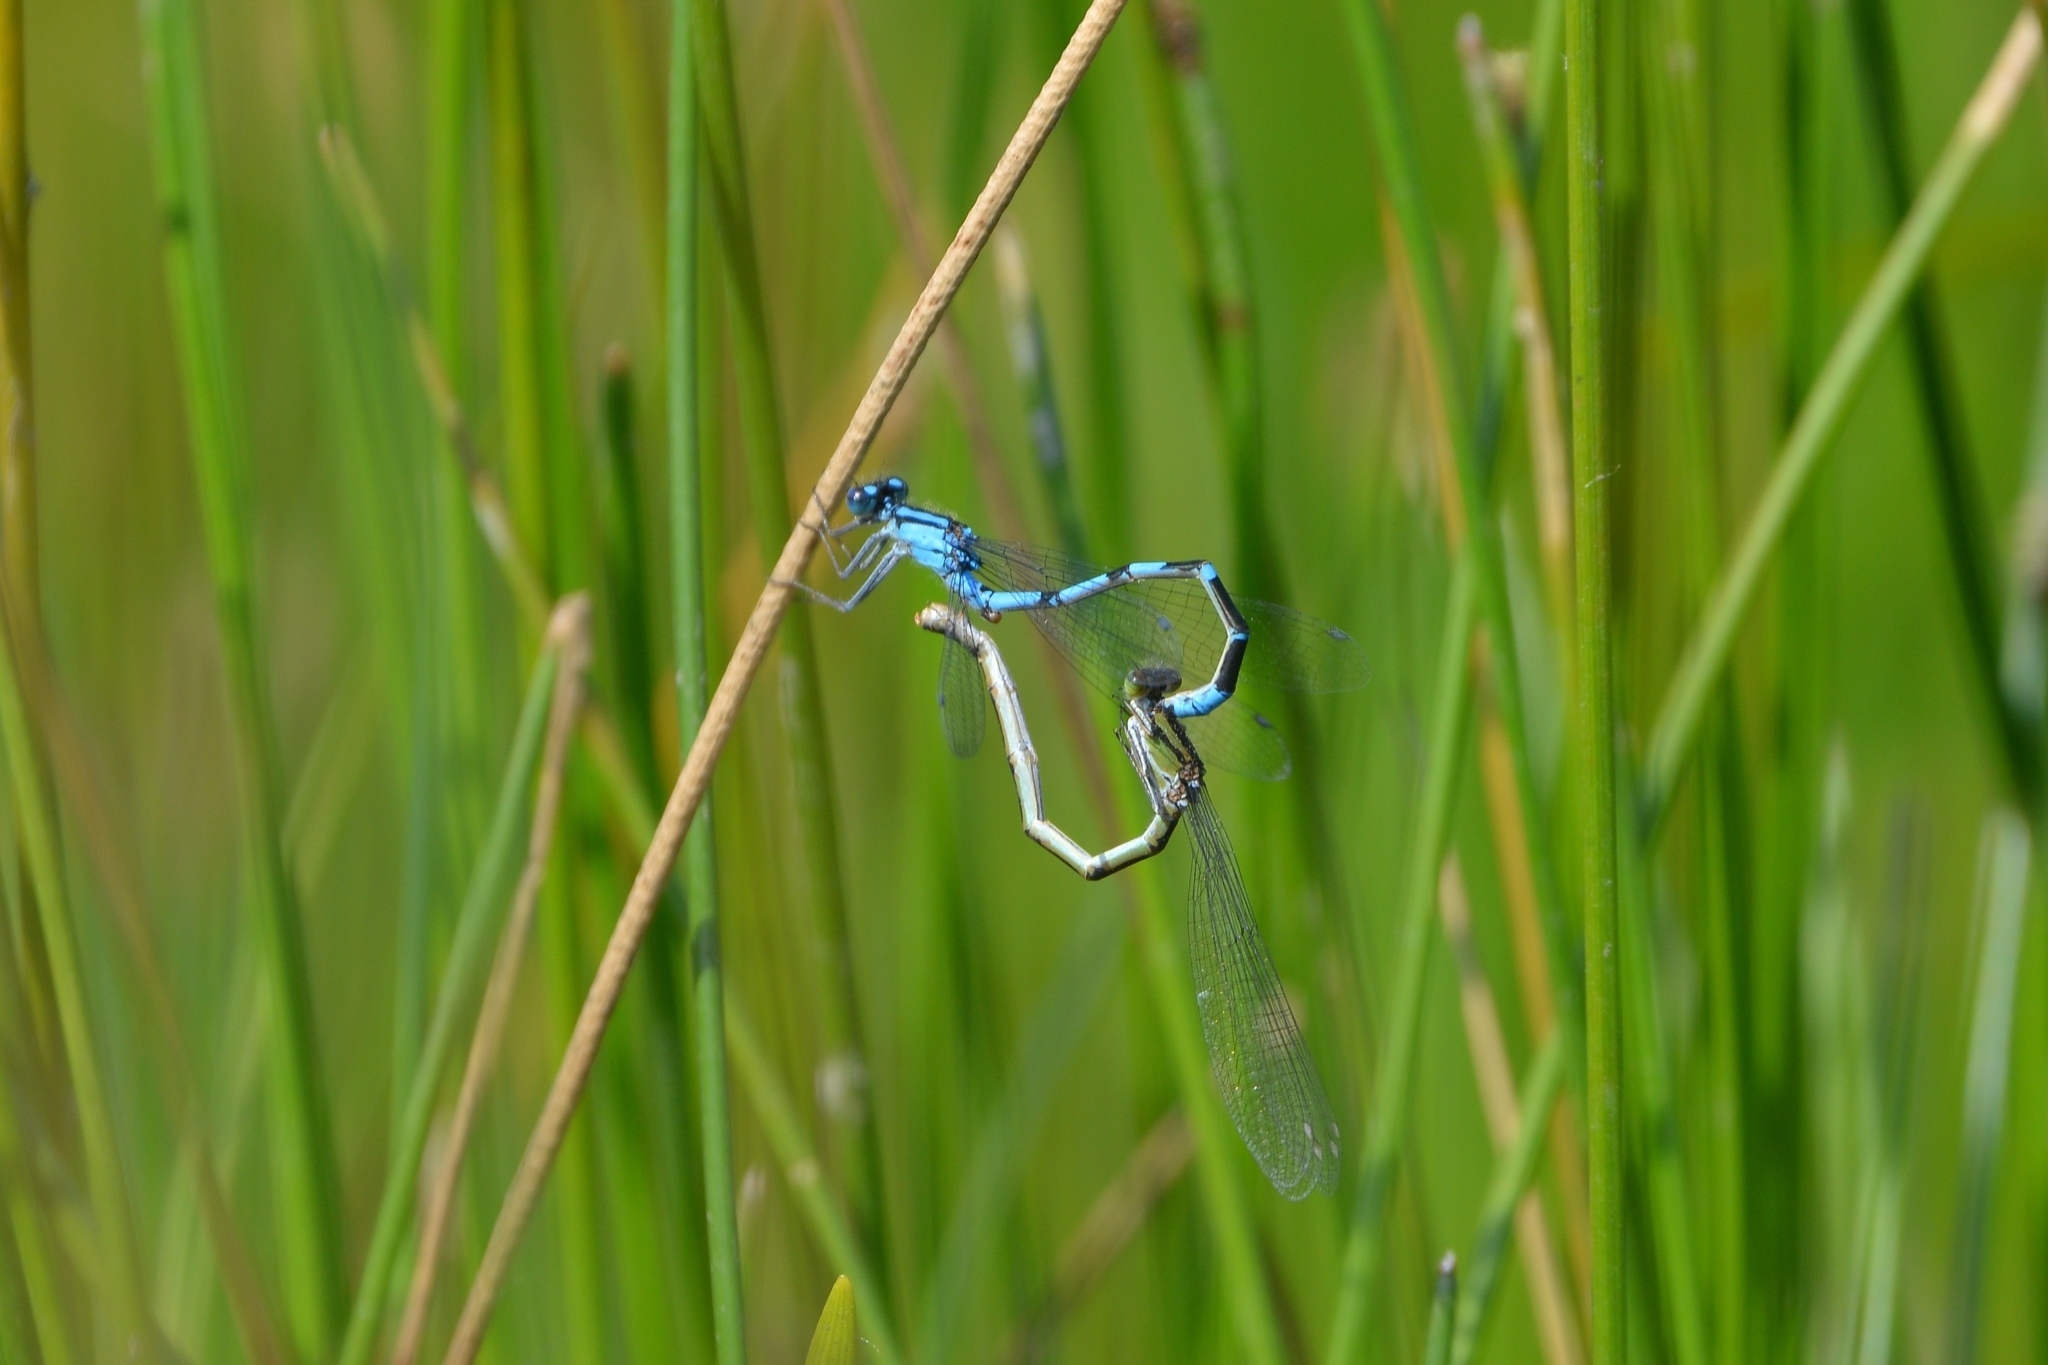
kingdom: Animalia
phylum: Arthropoda
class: Insecta
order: Odonata
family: Coenagrionidae
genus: Enallagma
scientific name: Enallagma cyathigerum
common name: Common blue damselfly
